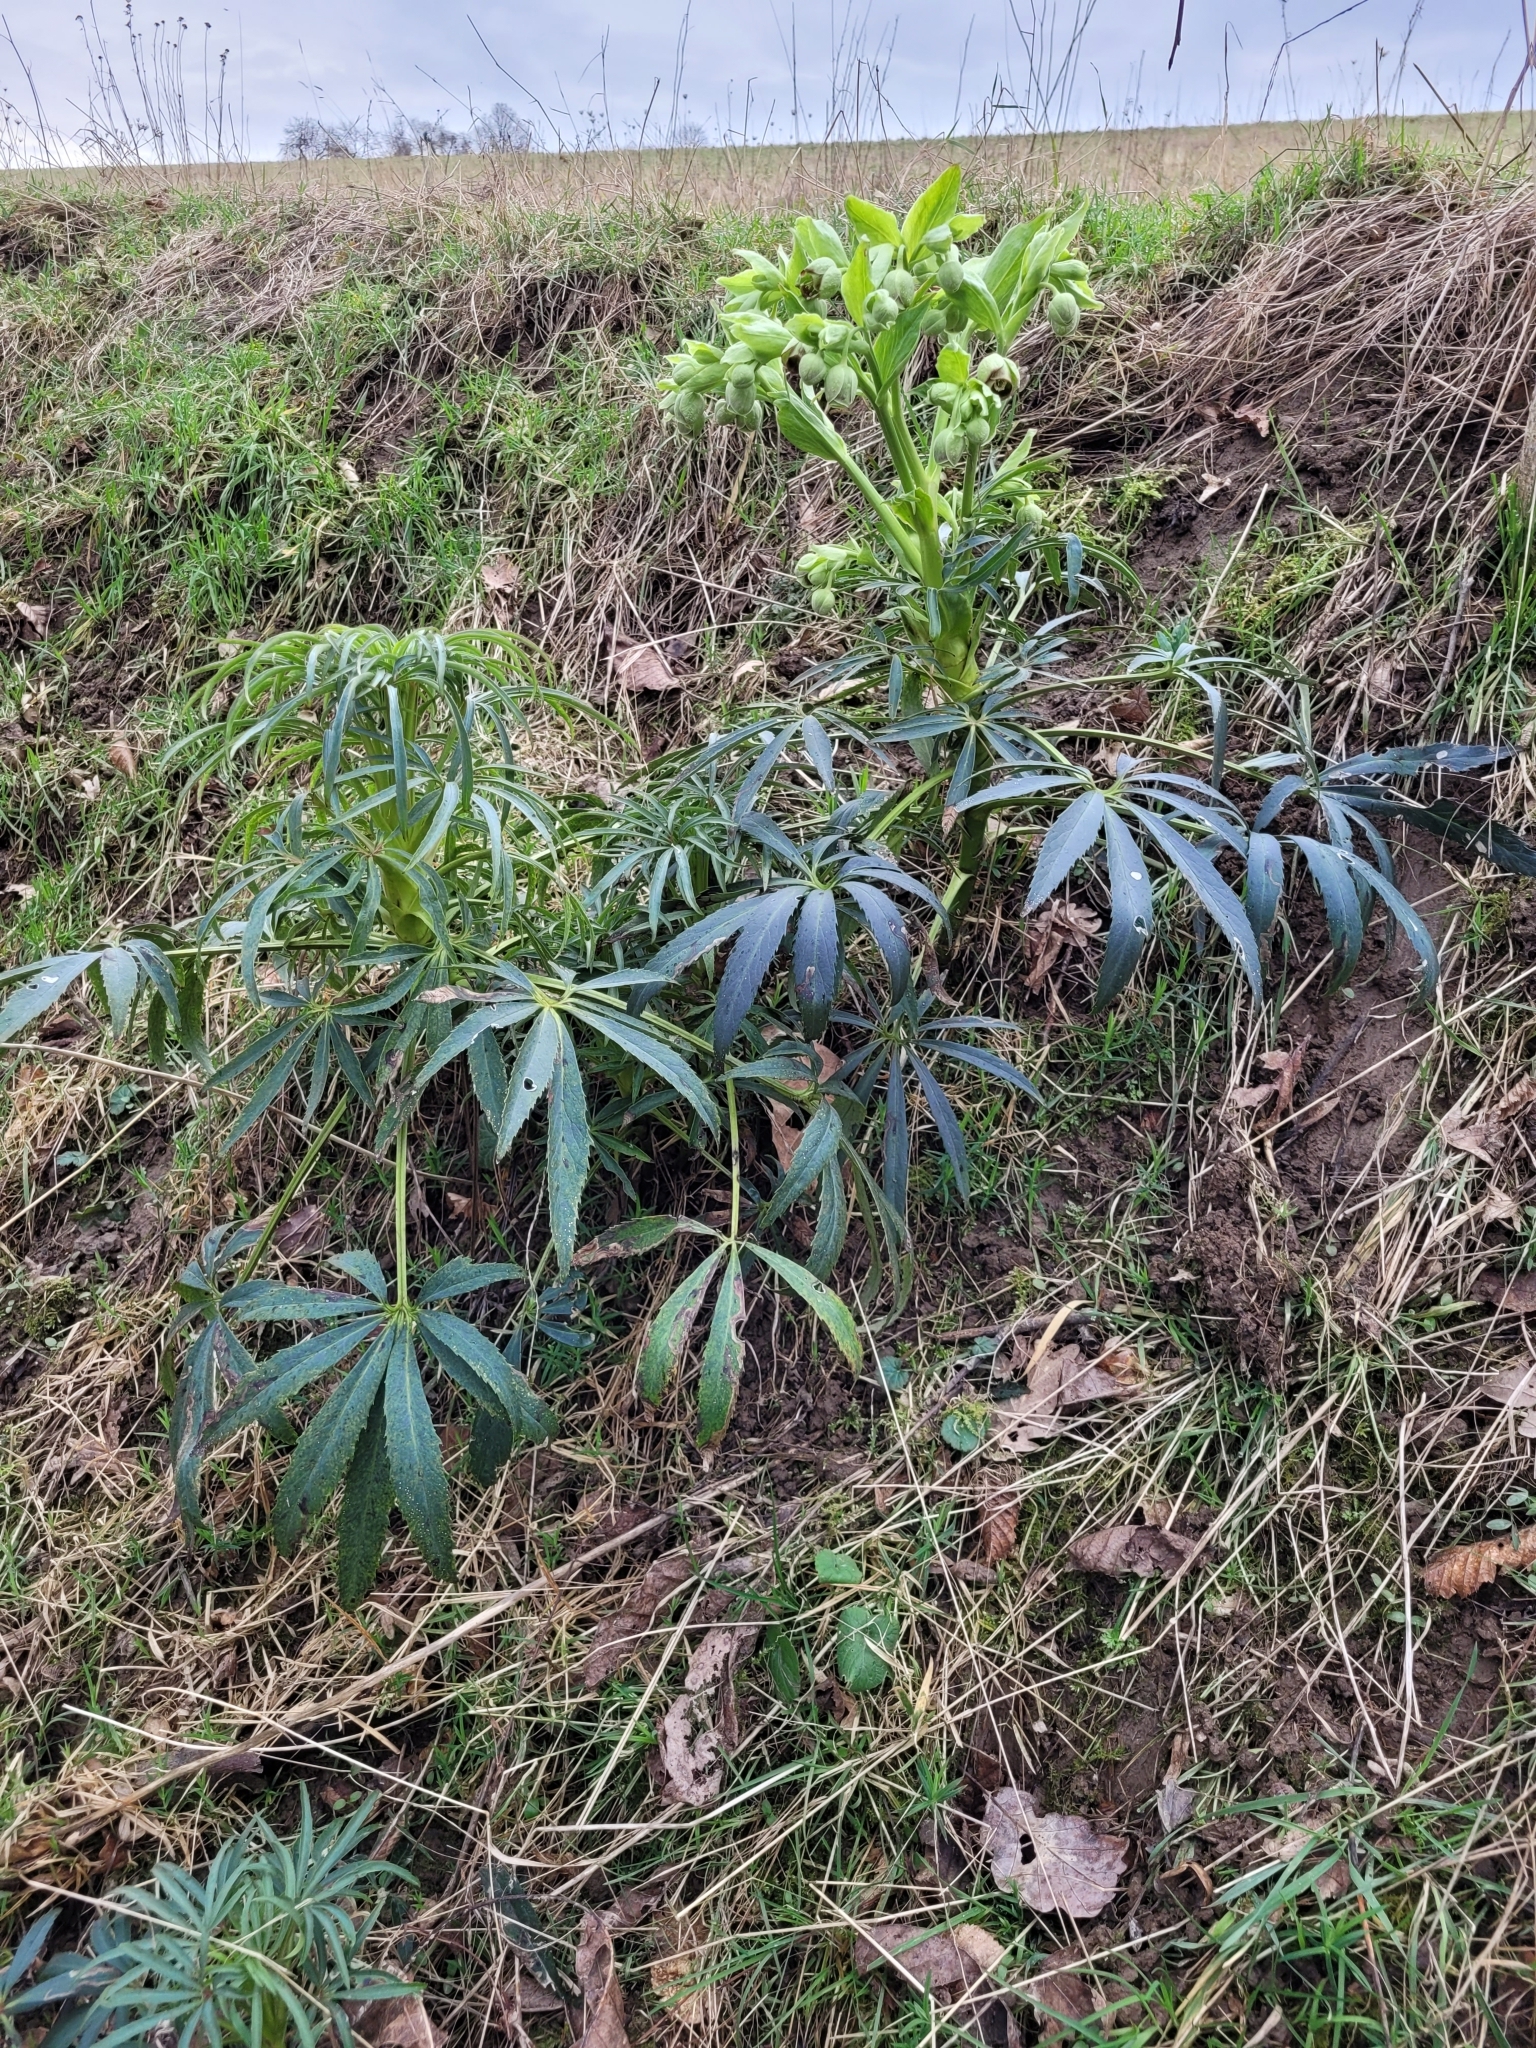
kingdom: Plantae
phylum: Tracheophyta
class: Magnoliopsida
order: Ranunculales
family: Ranunculaceae
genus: Helleborus
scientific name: Helleborus foetidus
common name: Stinking hellebore
